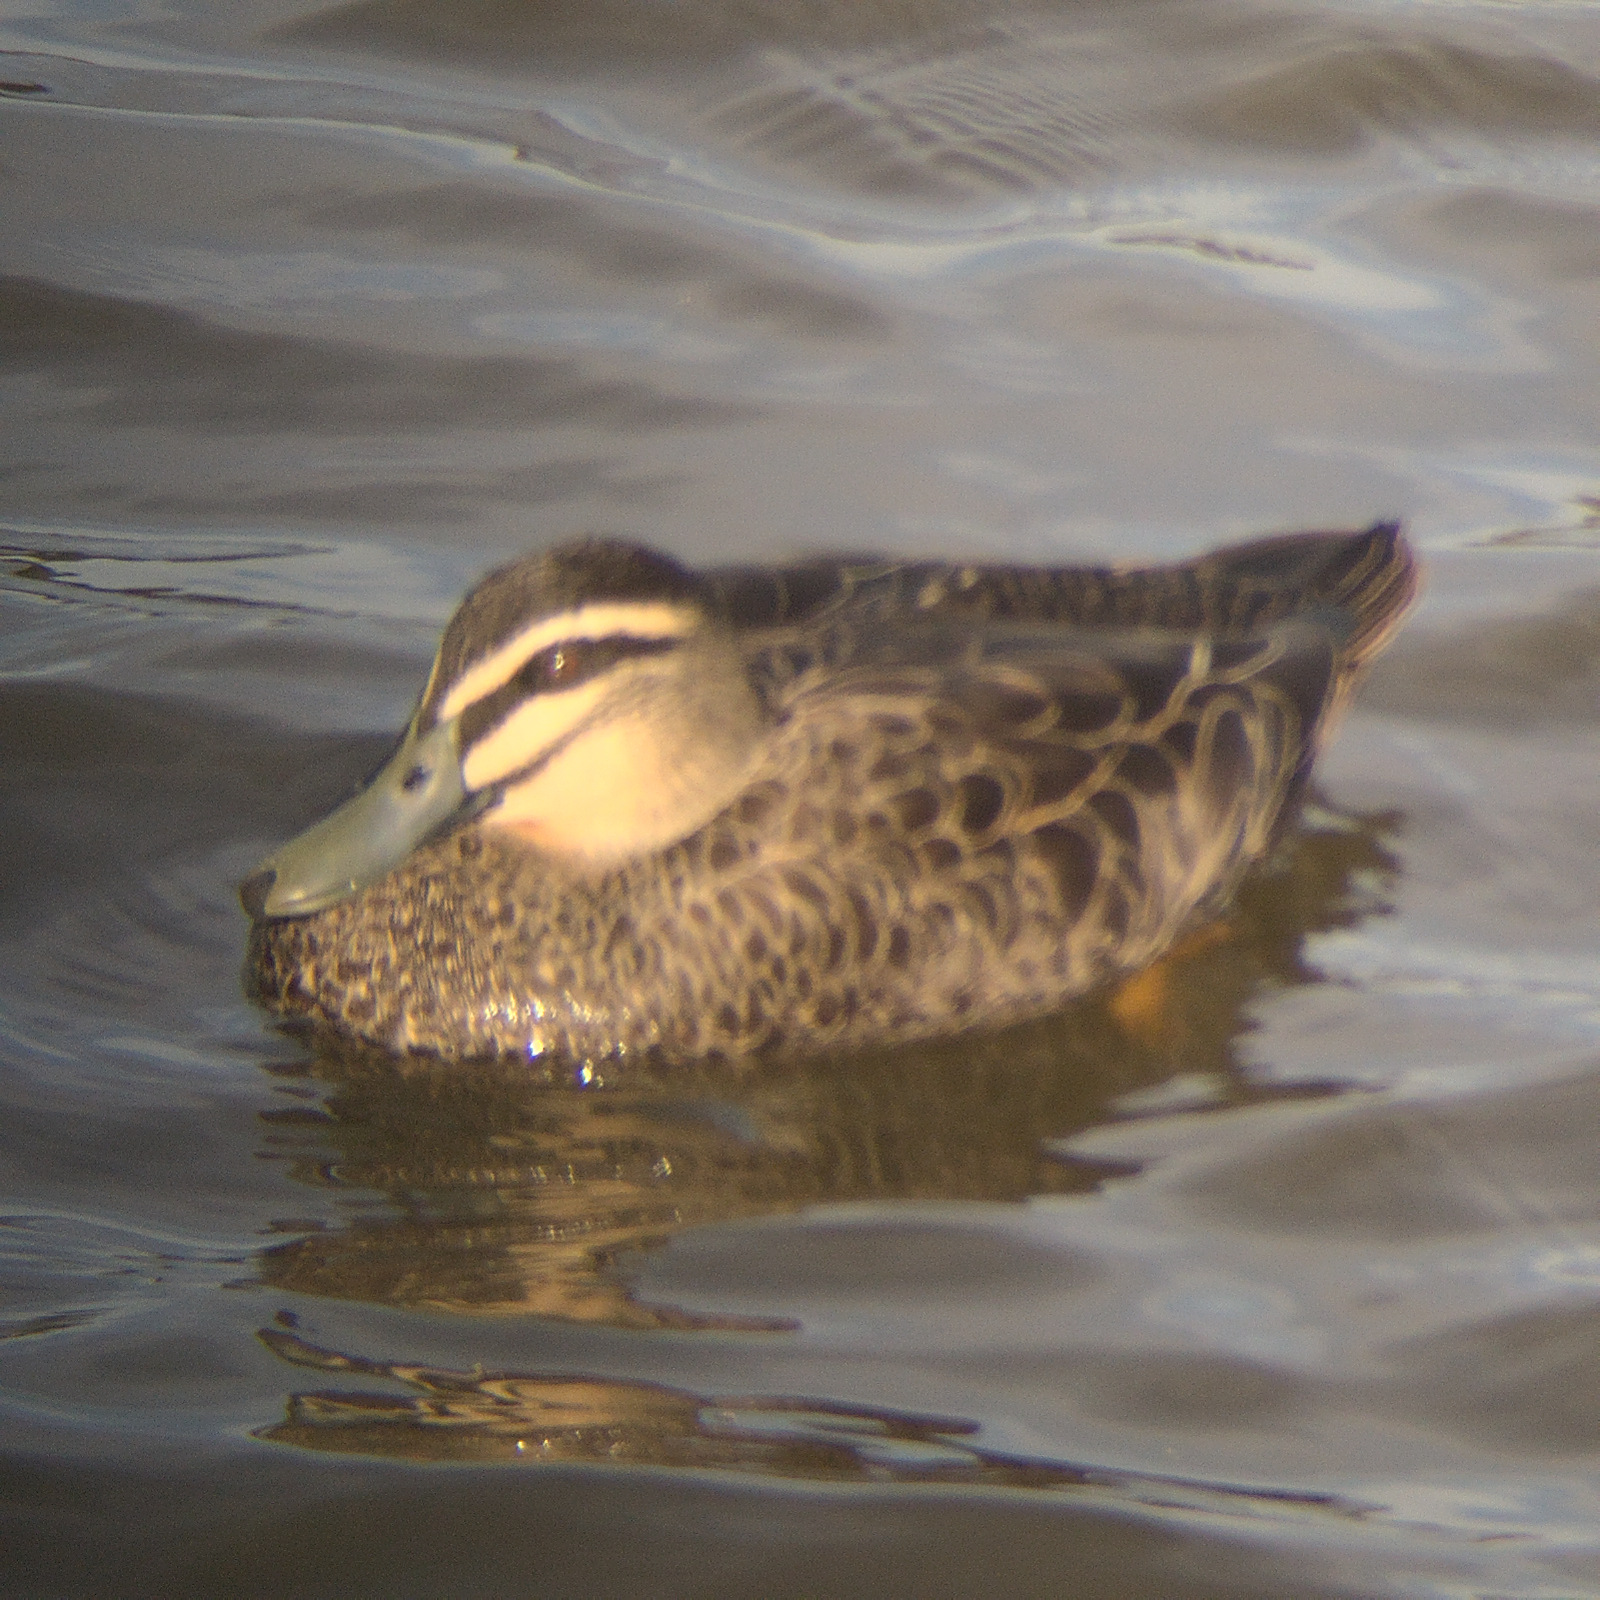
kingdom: Animalia
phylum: Chordata
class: Aves
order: Anseriformes
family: Anatidae
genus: Anas
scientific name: Anas superciliosa
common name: Pacific black duck
